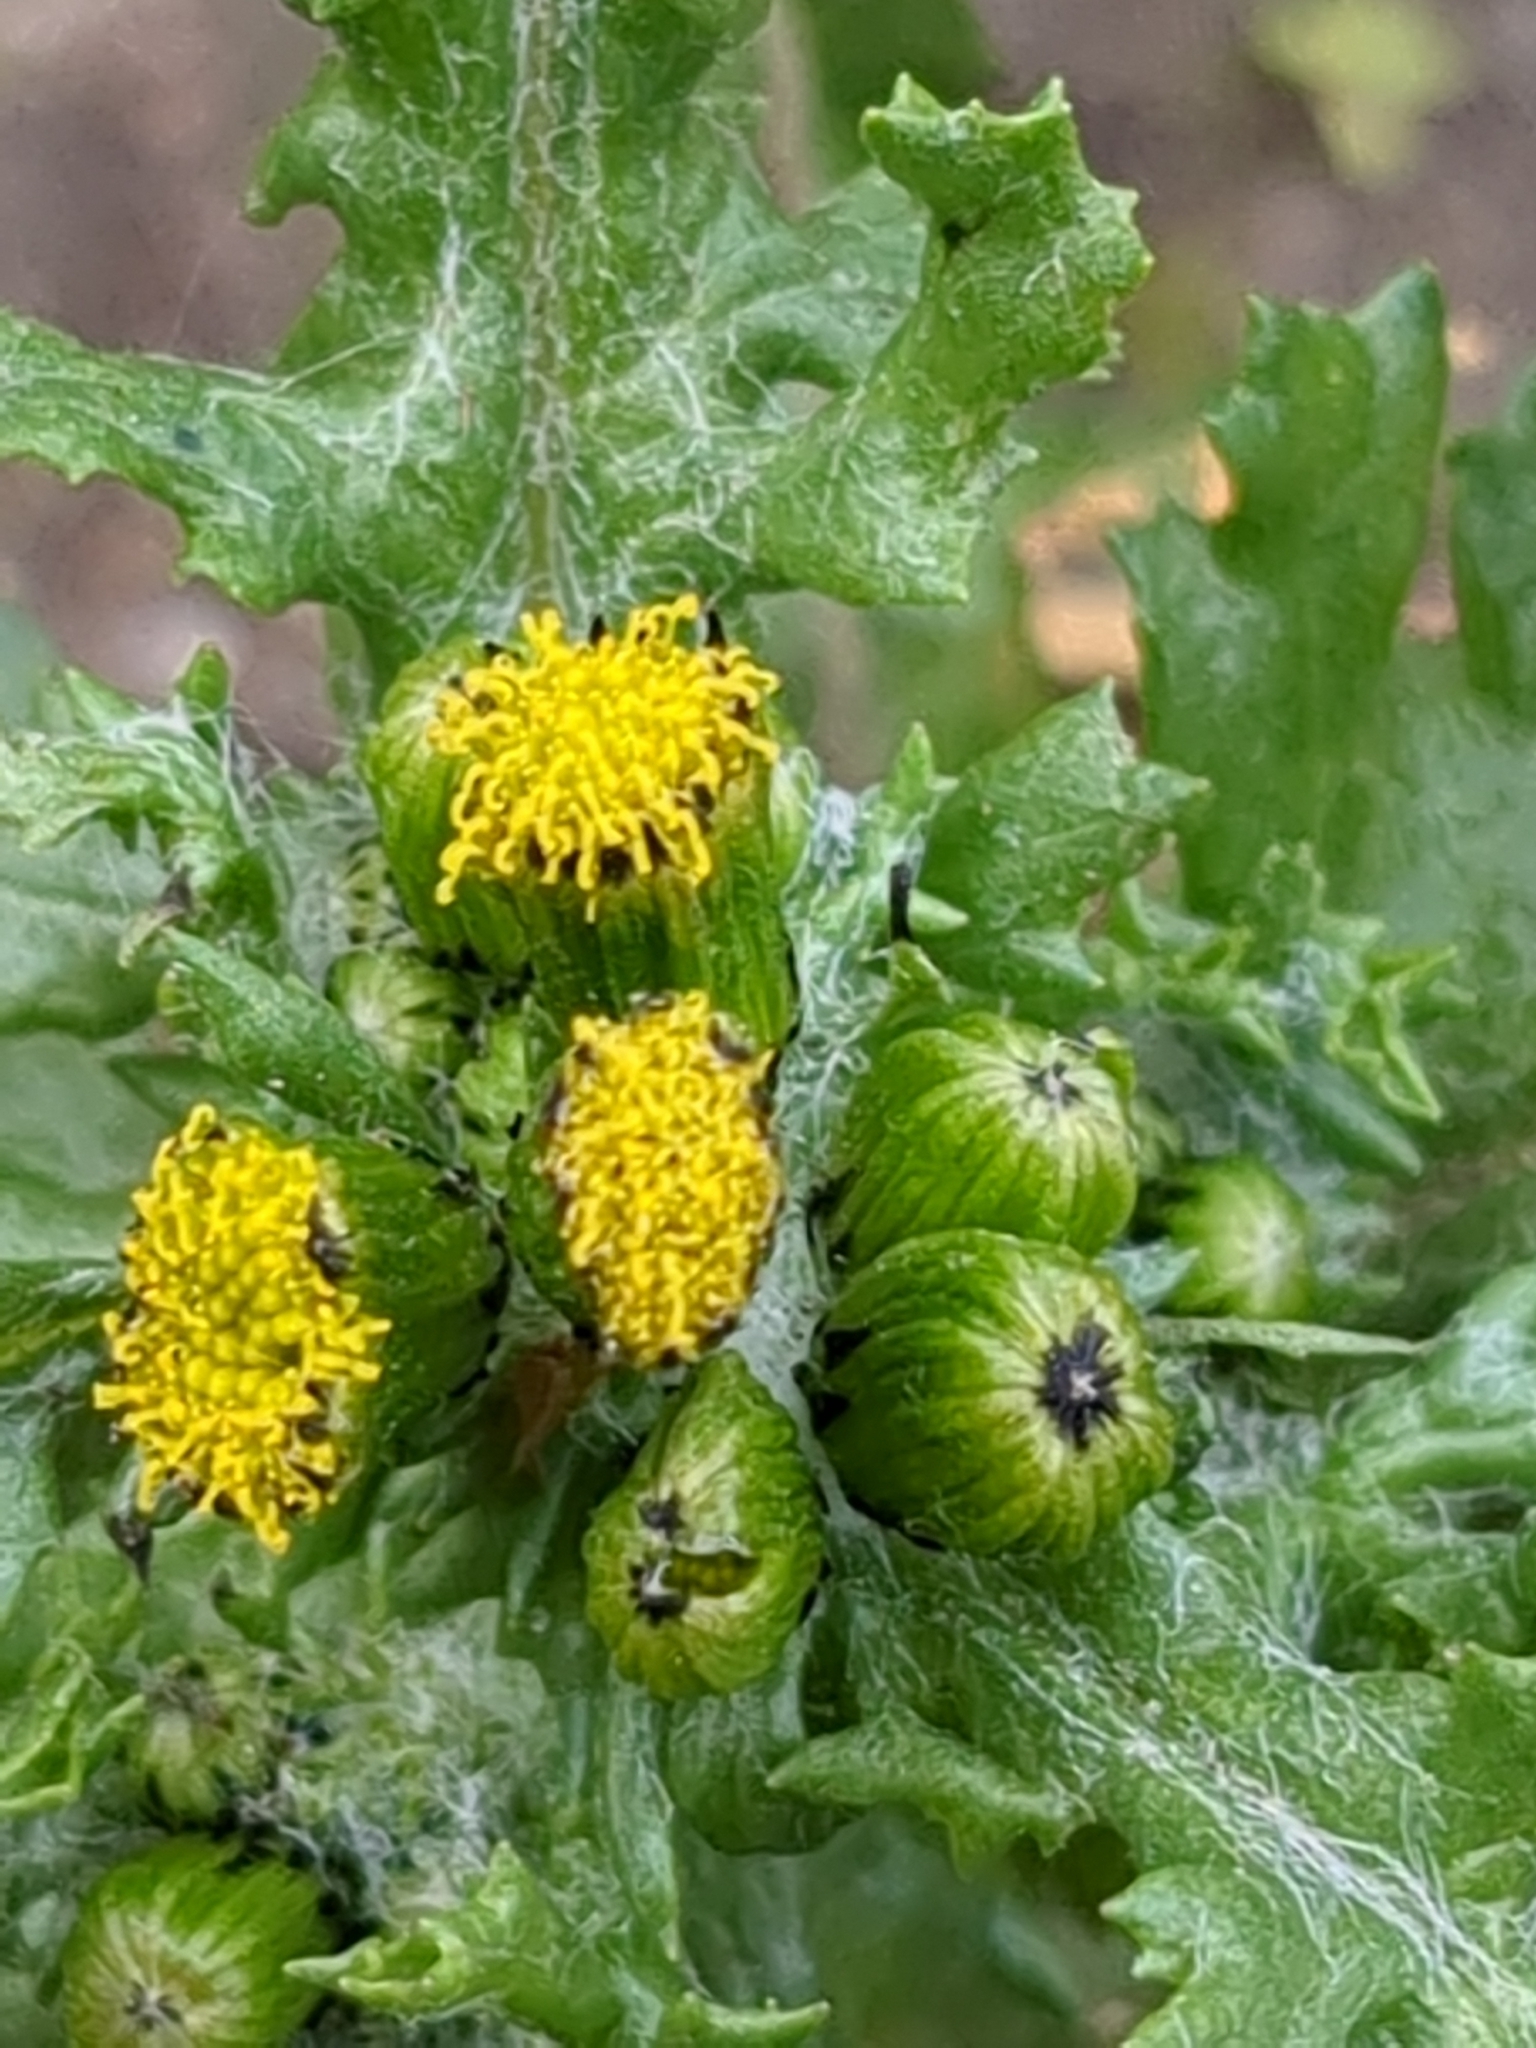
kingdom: Plantae
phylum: Tracheophyta
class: Magnoliopsida
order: Asterales
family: Asteraceae
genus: Senecio
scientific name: Senecio vulgaris
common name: Old-man-in-the-spring
